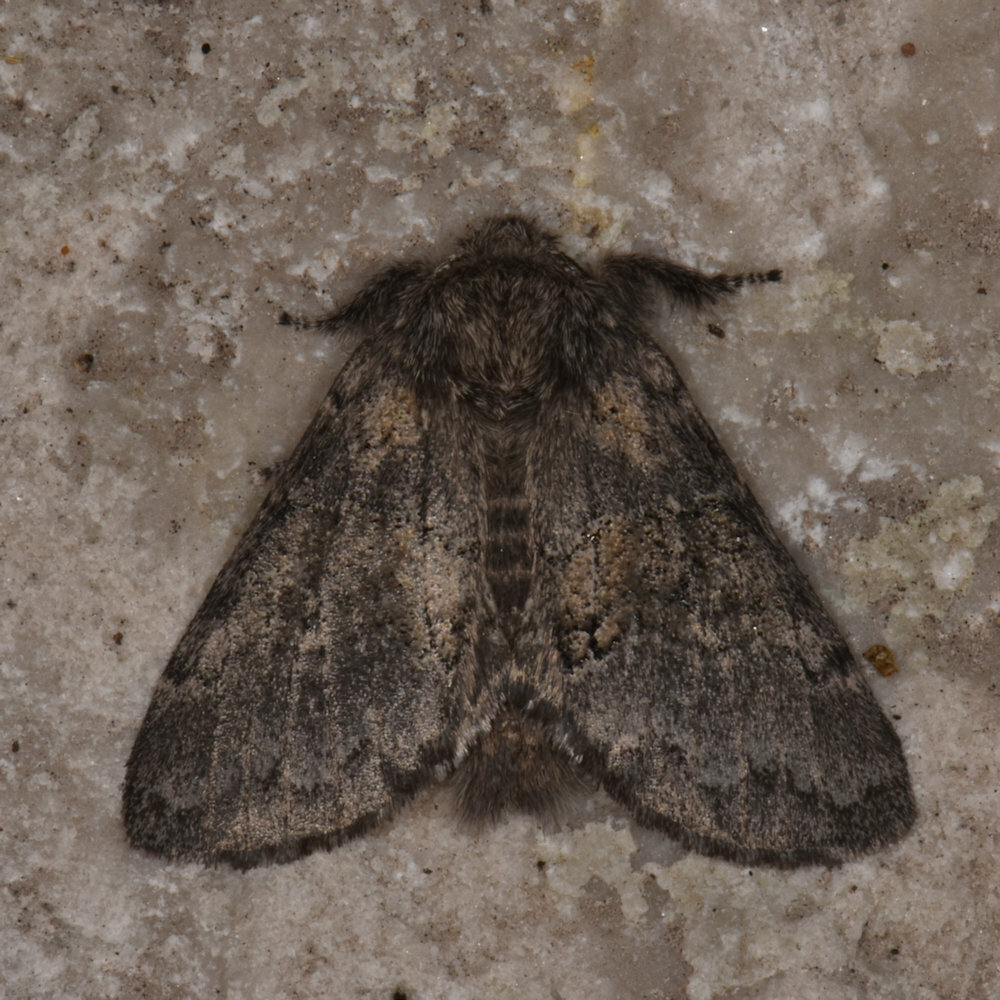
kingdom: Animalia
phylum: Arthropoda
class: Insecta
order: Lepidoptera
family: Notodontidae
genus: Gluphisia
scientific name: Gluphisia septentrionis
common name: Common gluphisia
